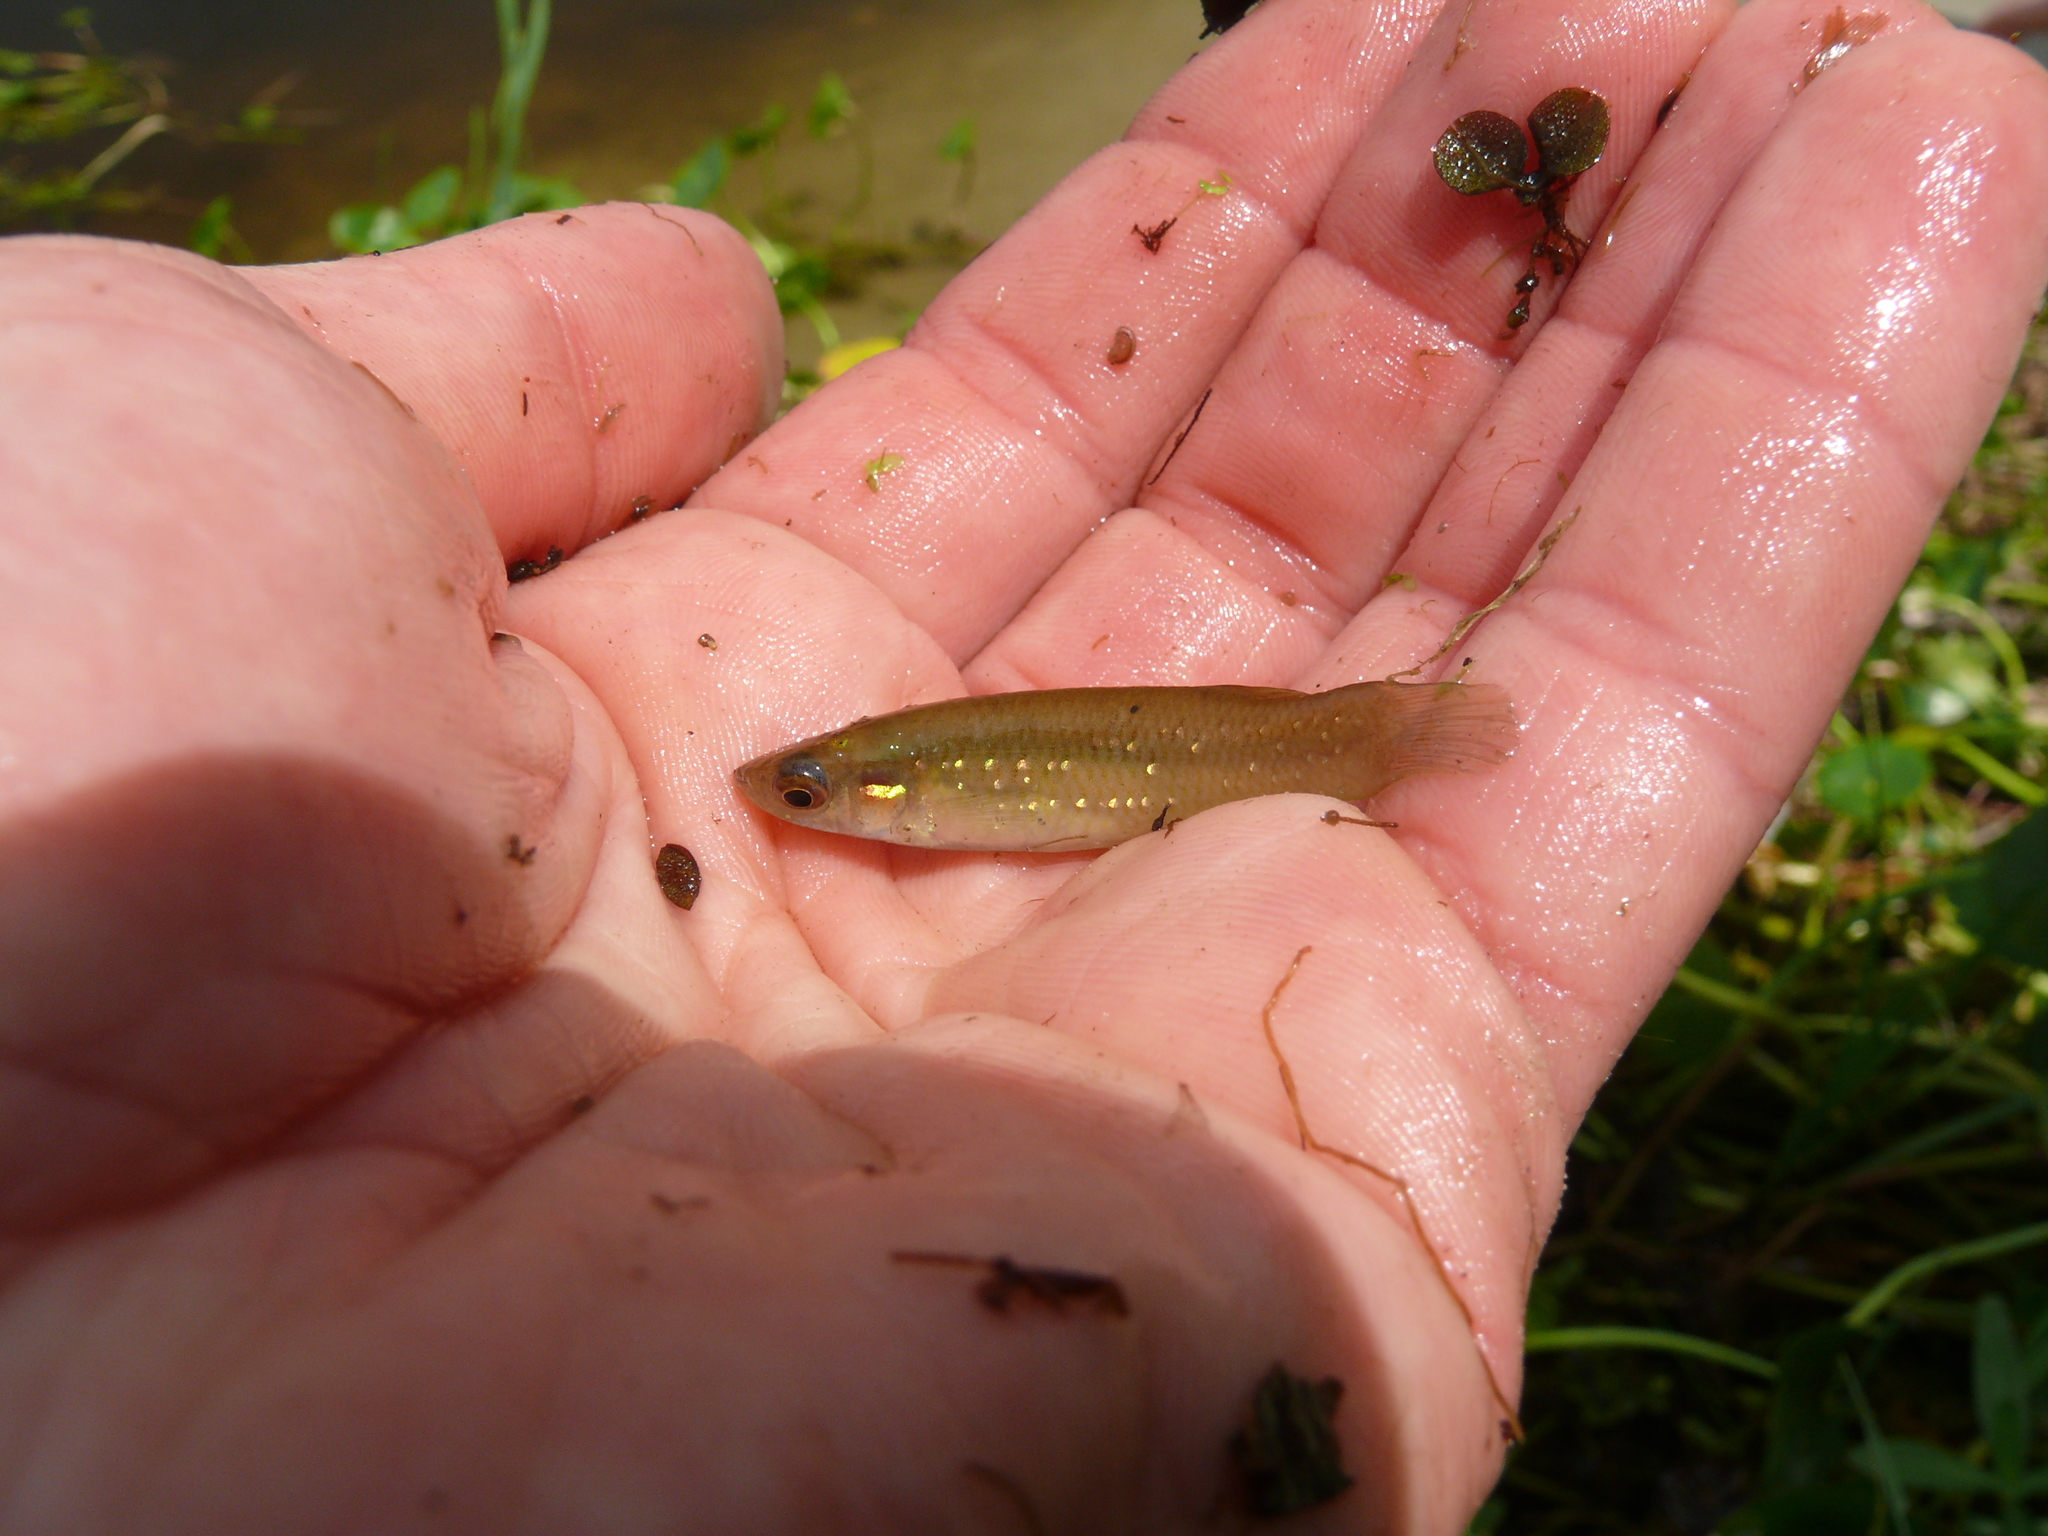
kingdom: Animalia
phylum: Chordata
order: Cyprinodontiformes
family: Fundulidae
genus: Fundulus
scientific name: Fundulus chrysotus
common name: Golden topminnow
